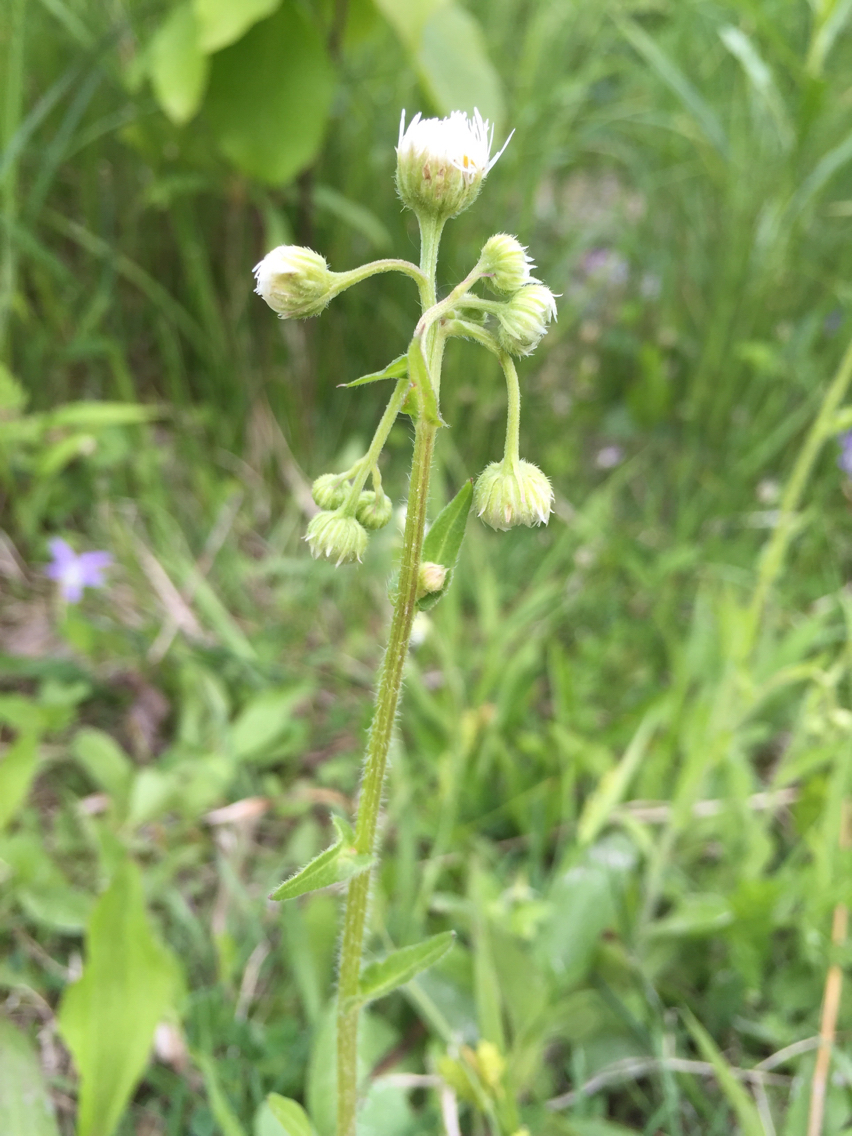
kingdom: Plantae
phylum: Tracheophyta
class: Magnoliopsida
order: Asterales
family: Asteraceae
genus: Erigeron
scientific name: Erigeron philadelphicus
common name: Robin's-plantain
